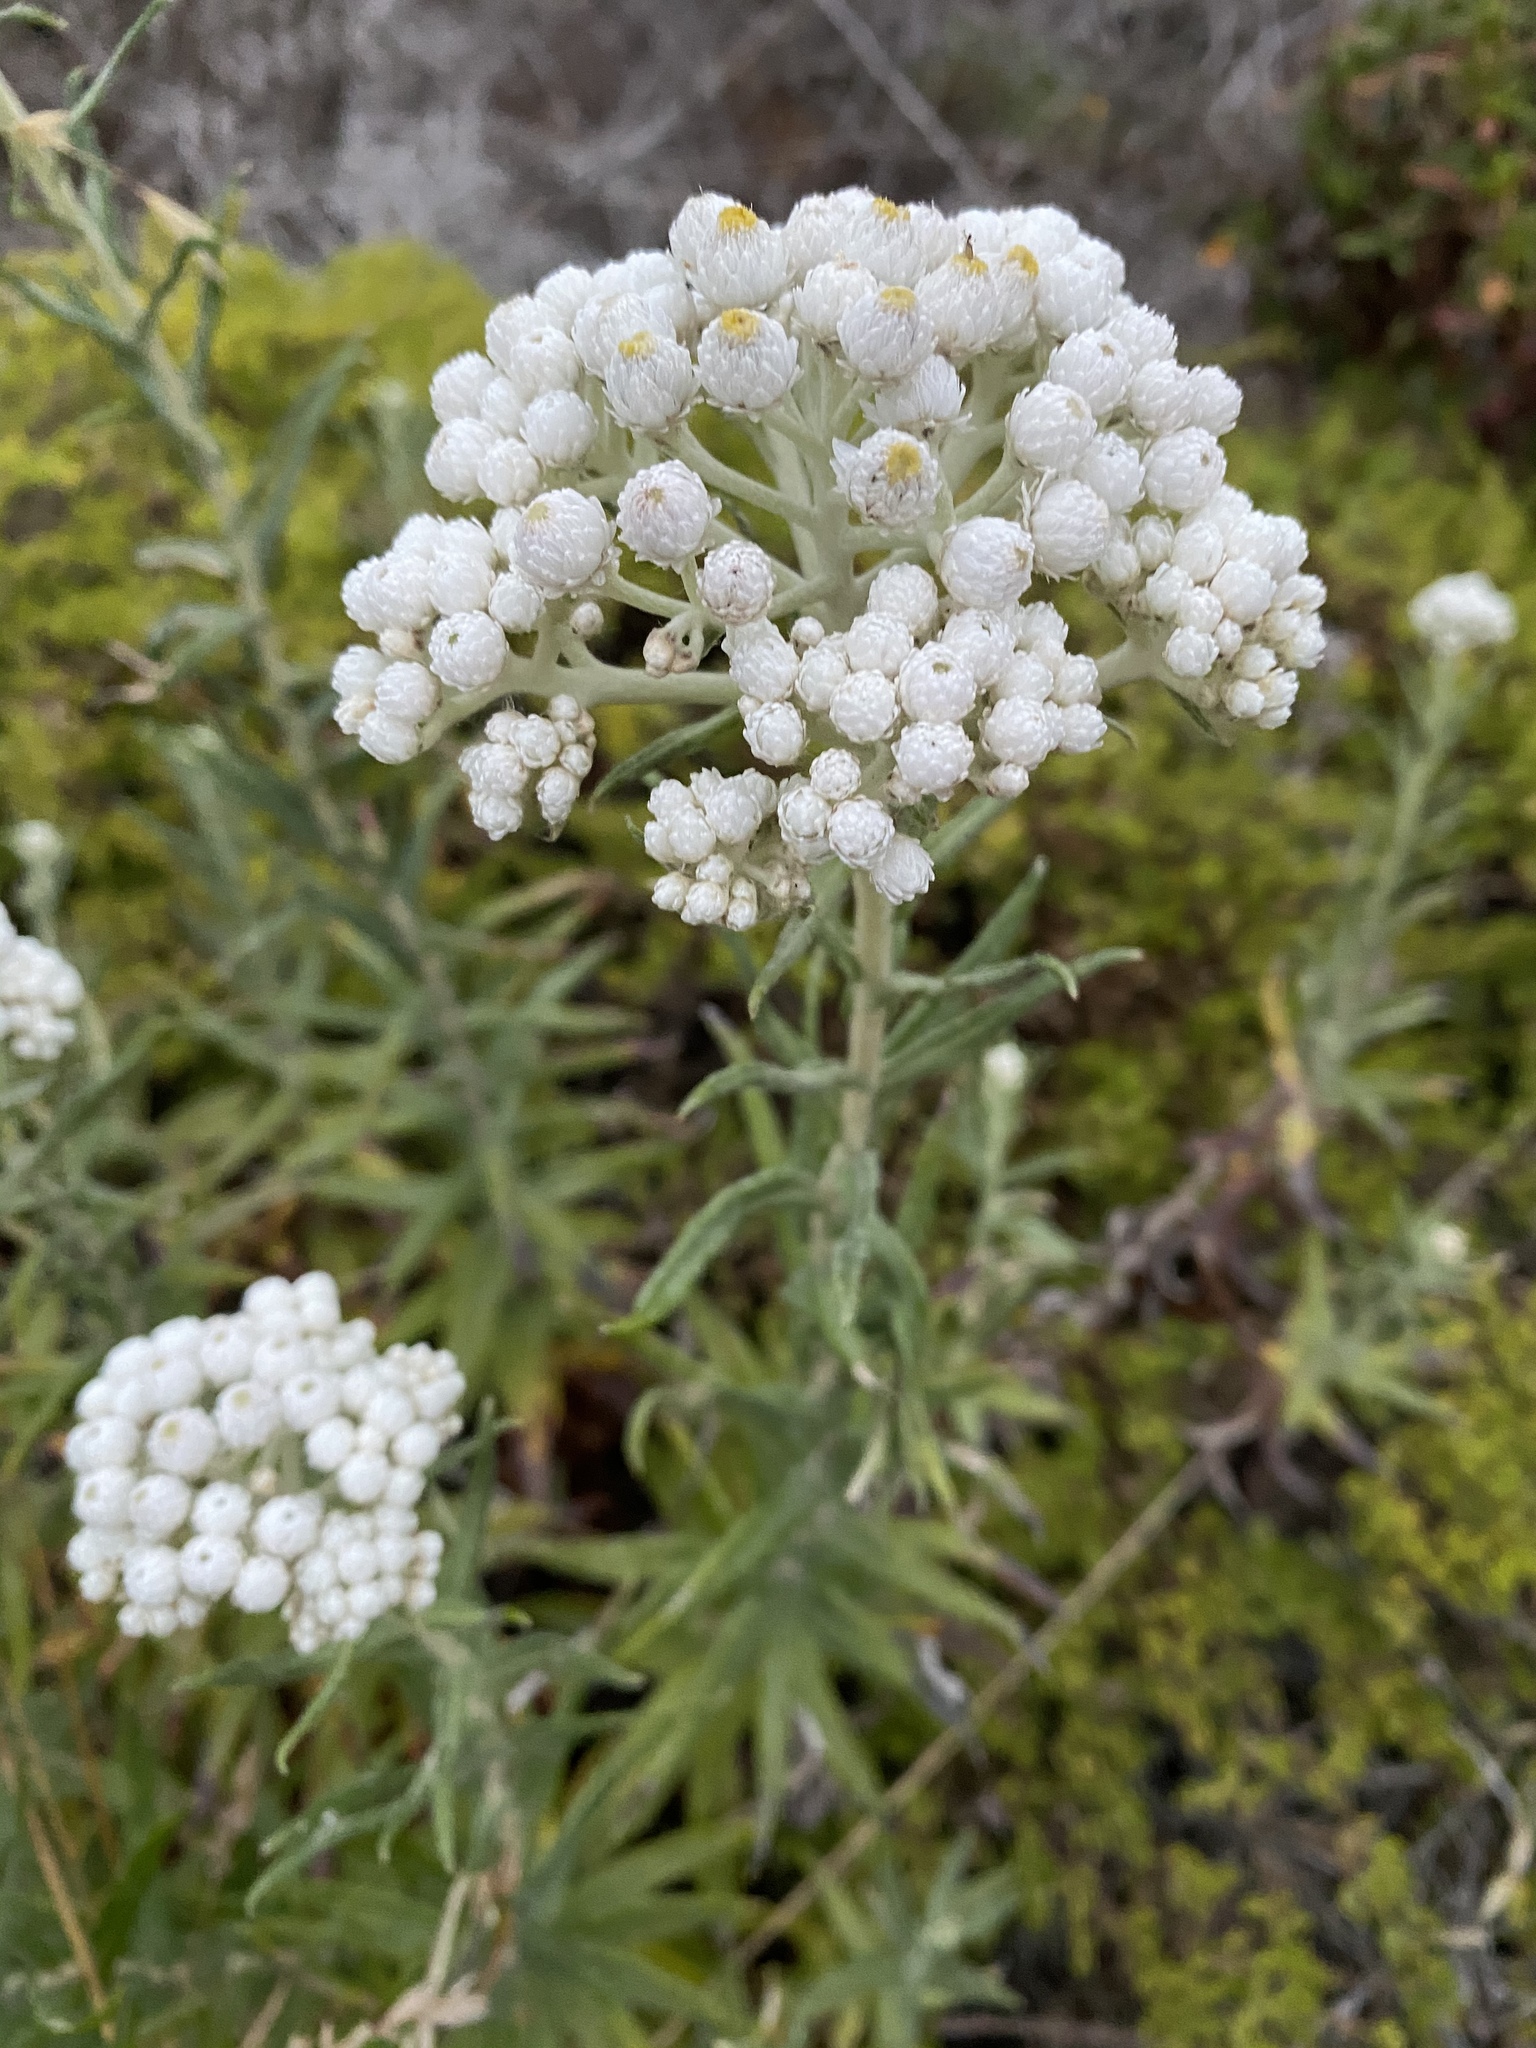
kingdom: Plantae
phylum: Tracheophyta
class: Magnoliopsida
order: Asterales
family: Asteraceae
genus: Anaphalis
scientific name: Anaphalis margaritacea
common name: Pearly everlasting
